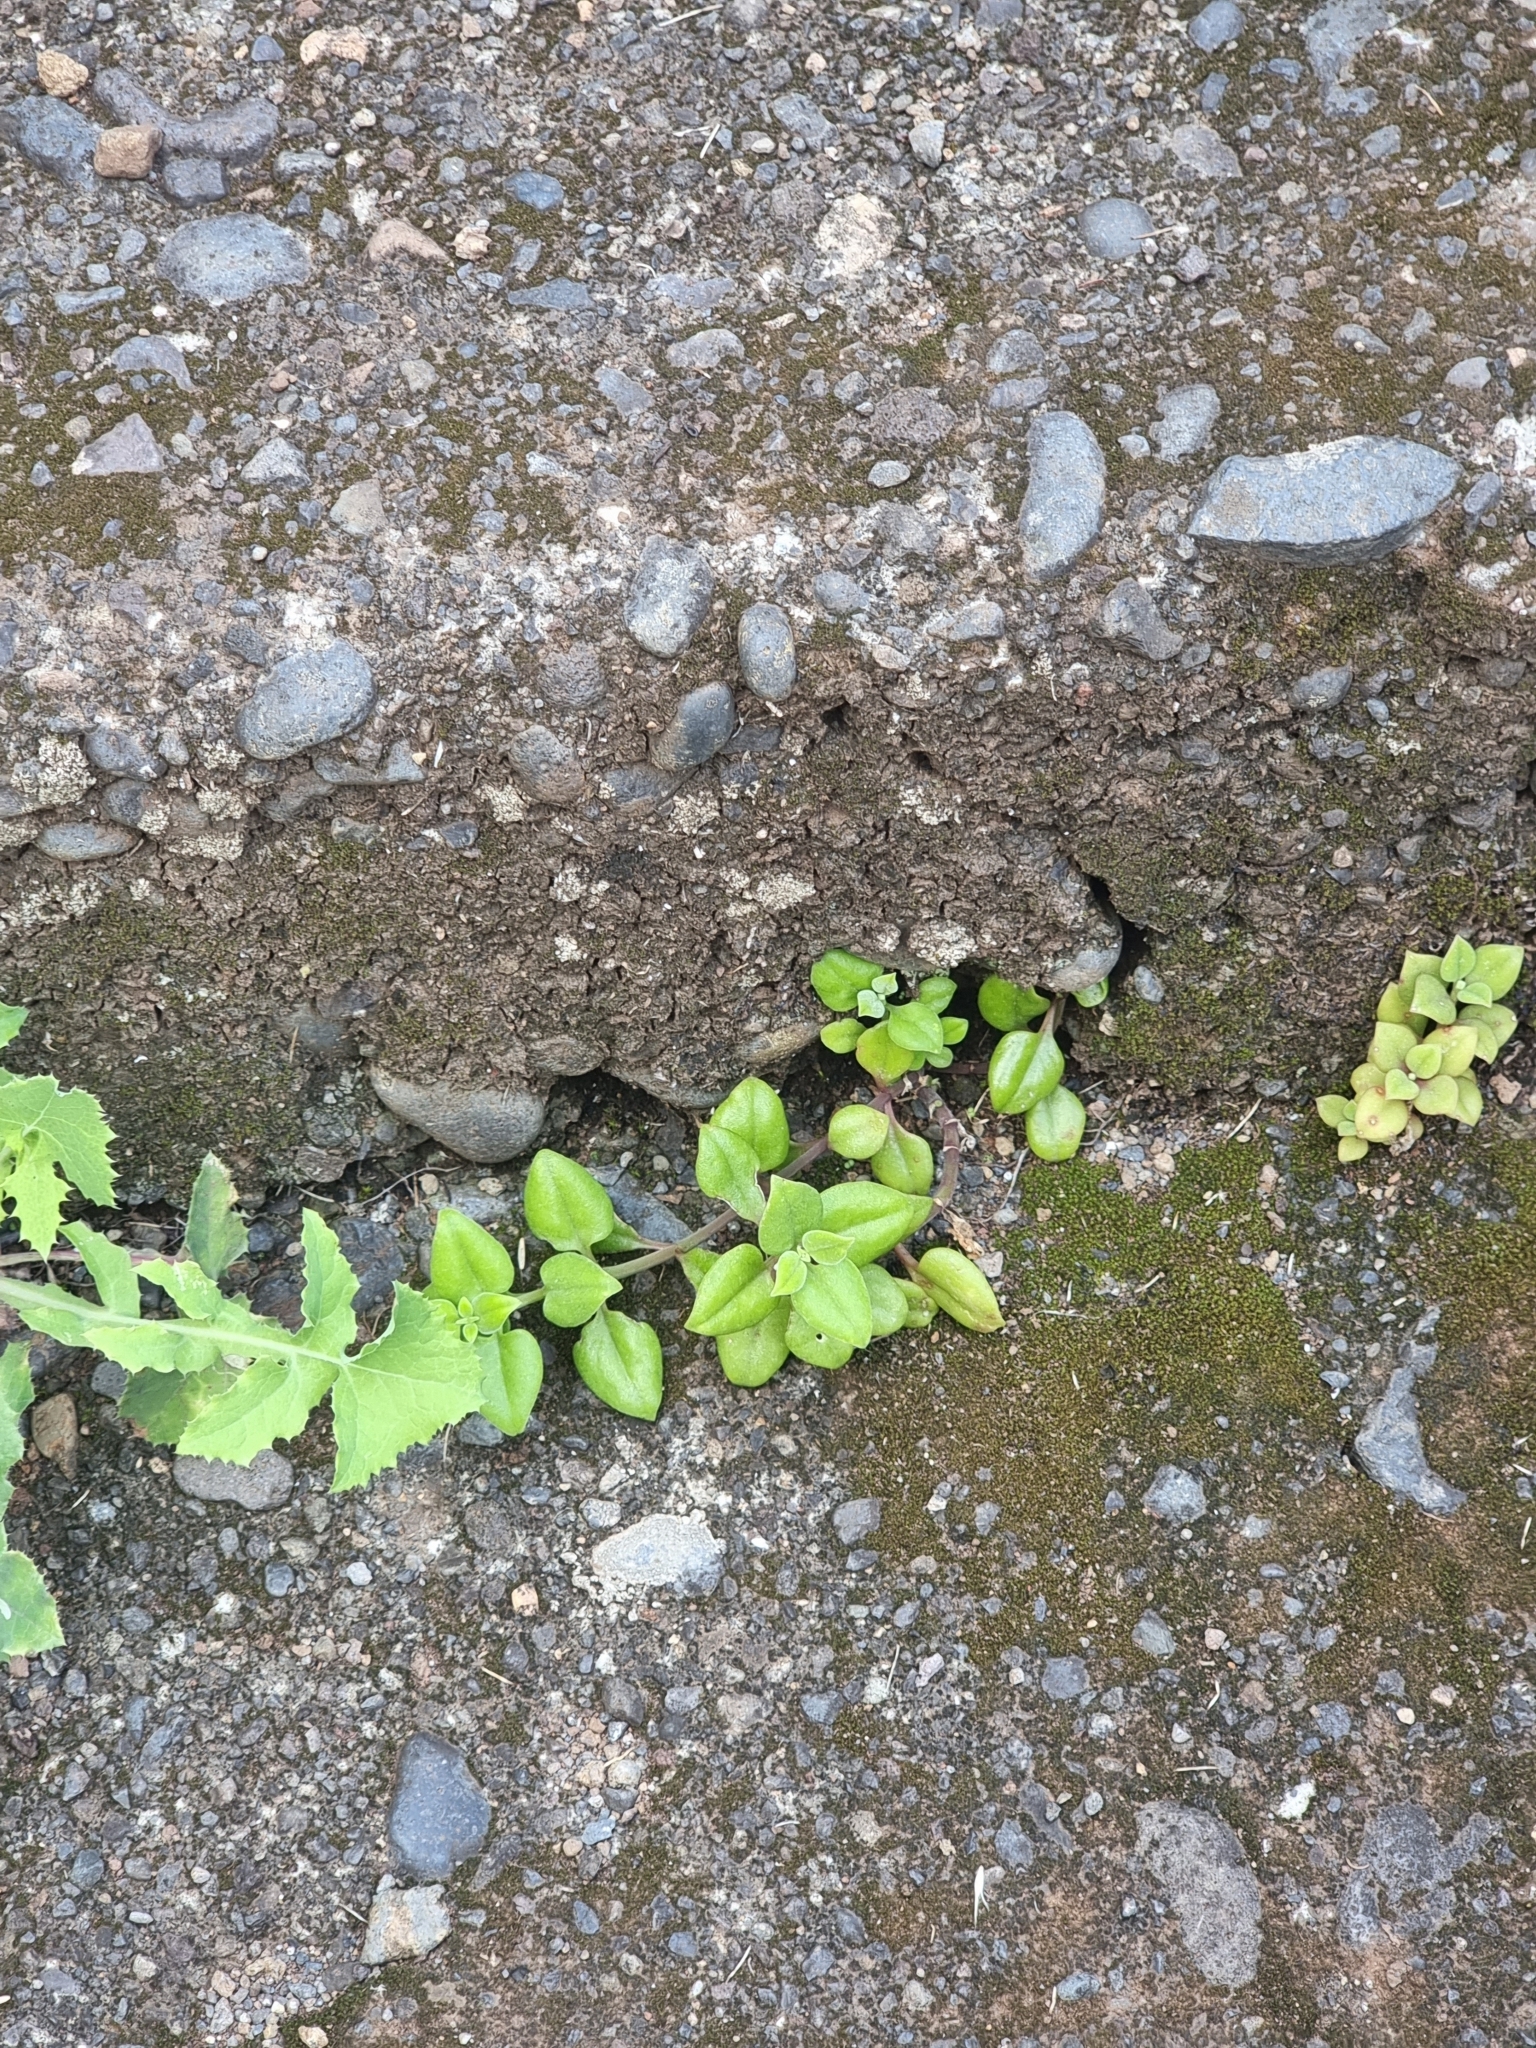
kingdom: Plantae
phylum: Tracheophyta
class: Magnoliopsida
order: Caryophyllales
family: Aizoaceae
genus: Mesembryanthemum
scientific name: Mesembryanthemum cordifolium
